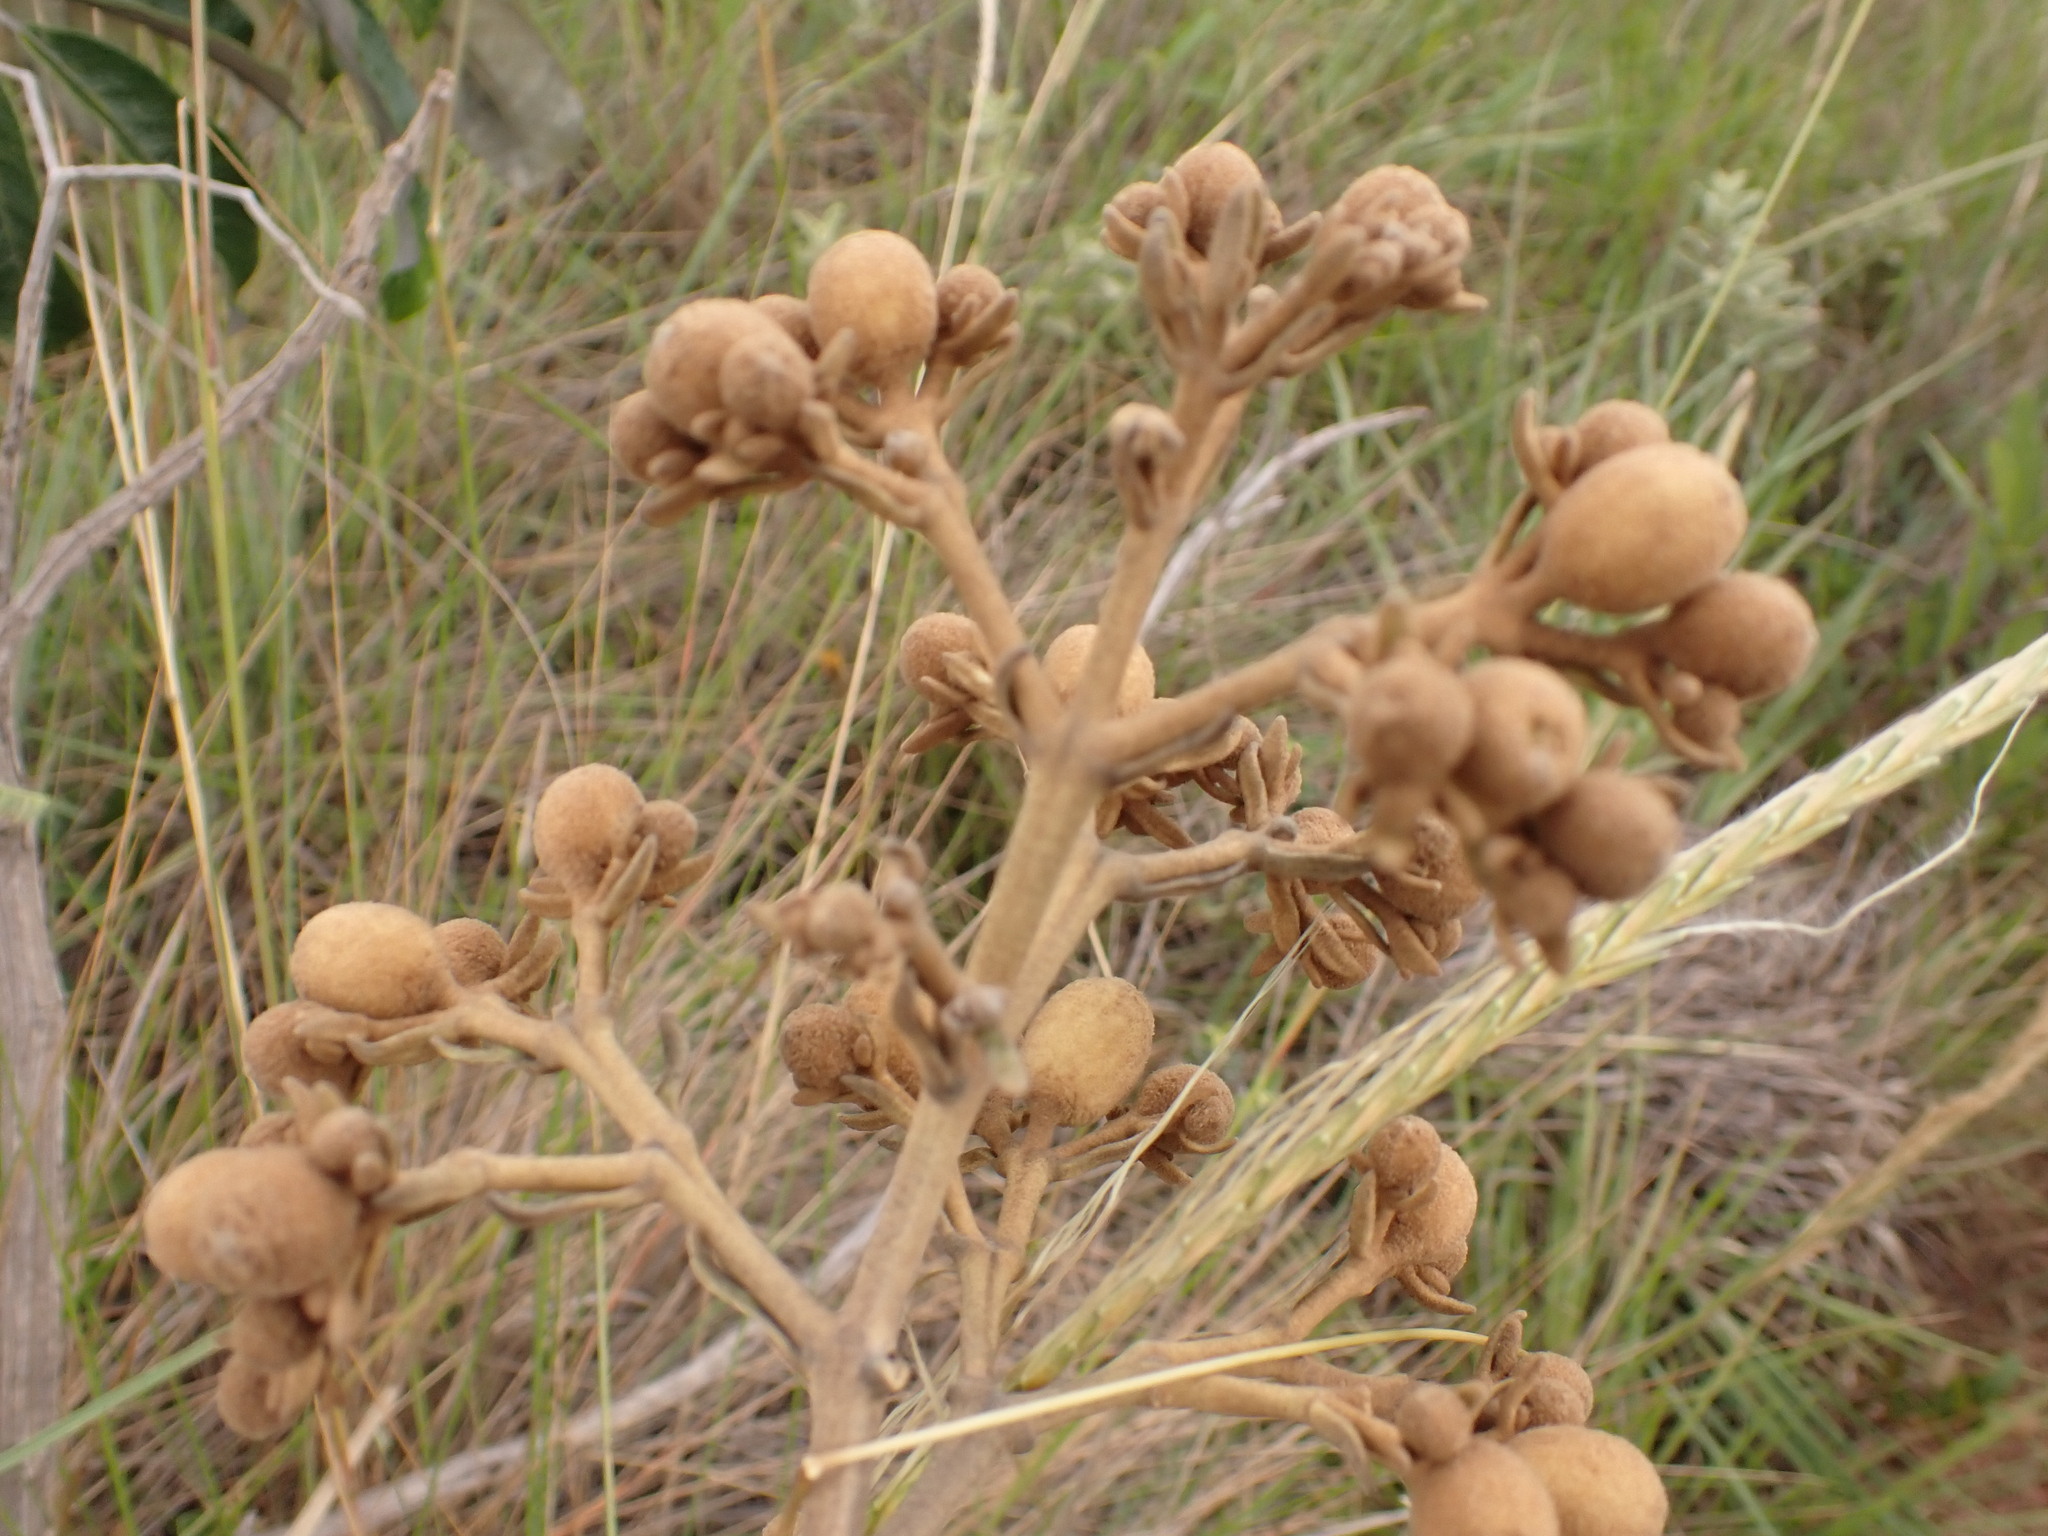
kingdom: Plantae
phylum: Tracheophyta
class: Magnoliopsida
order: Lamiales
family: Bignoniaceae
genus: Zeyheria
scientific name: Zeyheria montana
